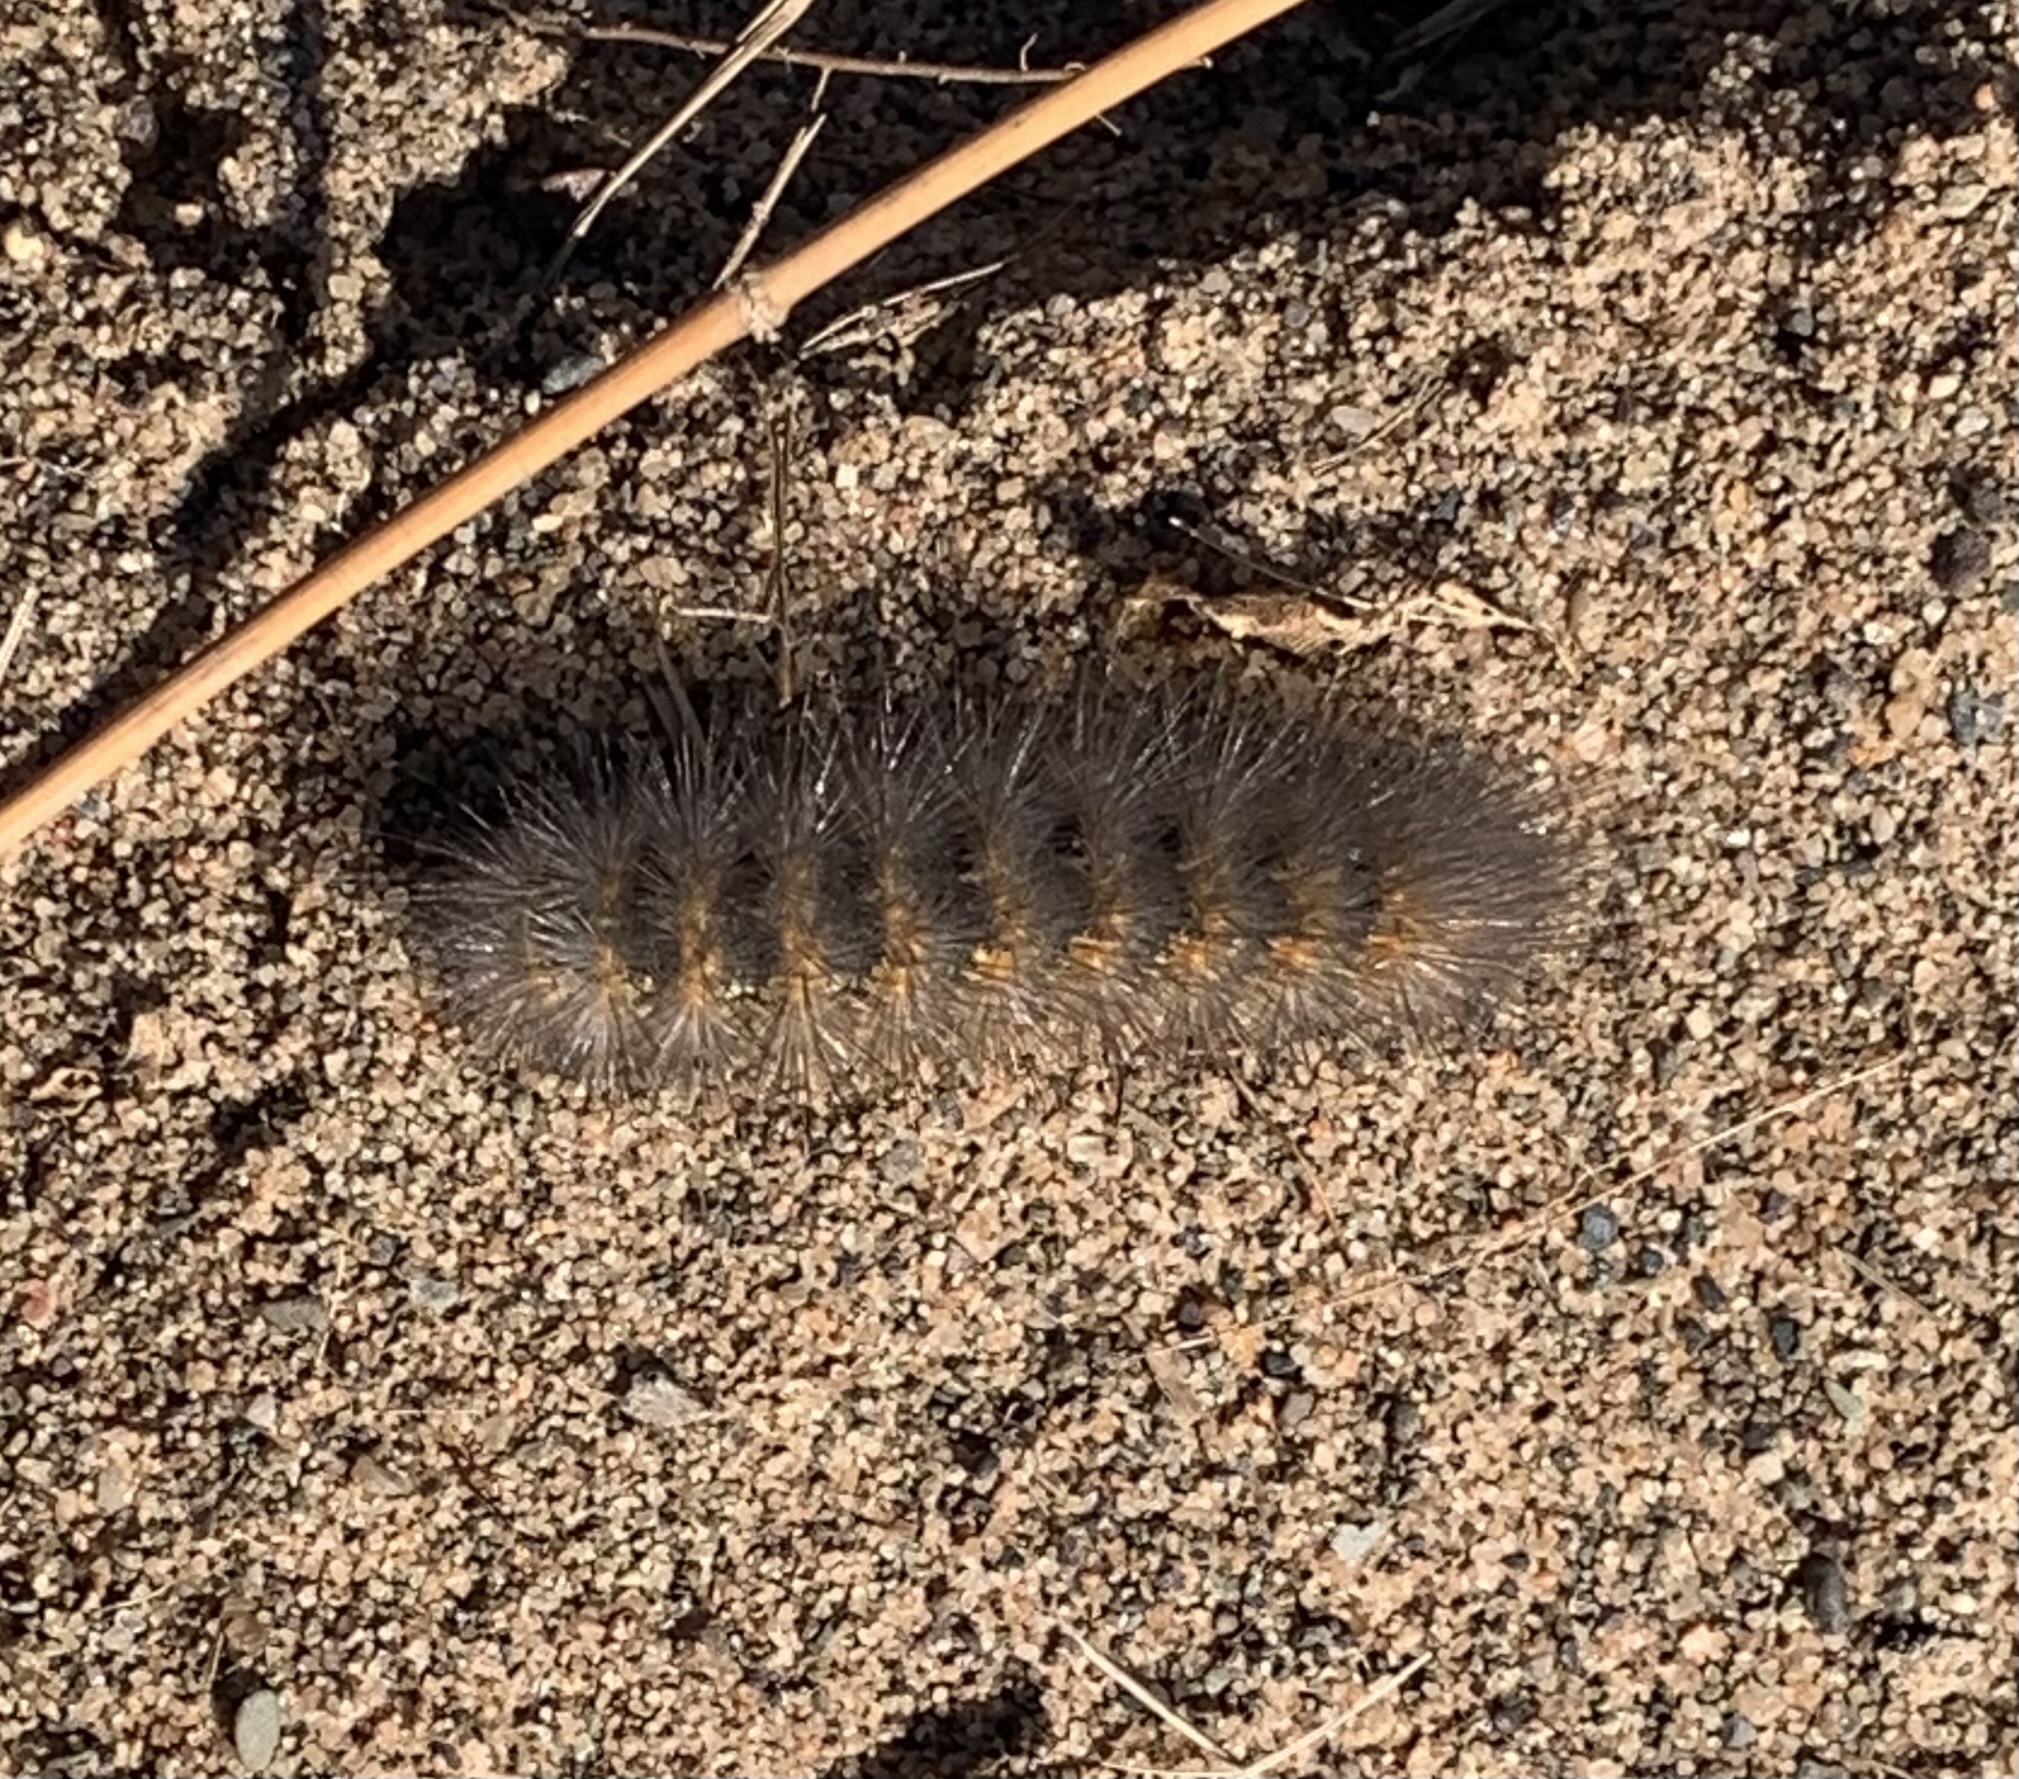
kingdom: Animalia
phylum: Arthropoda
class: Insecta
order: Lepidoptera
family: Erebidae
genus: Estigmene
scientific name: Estigmene acrea
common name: Salt marsh moth
